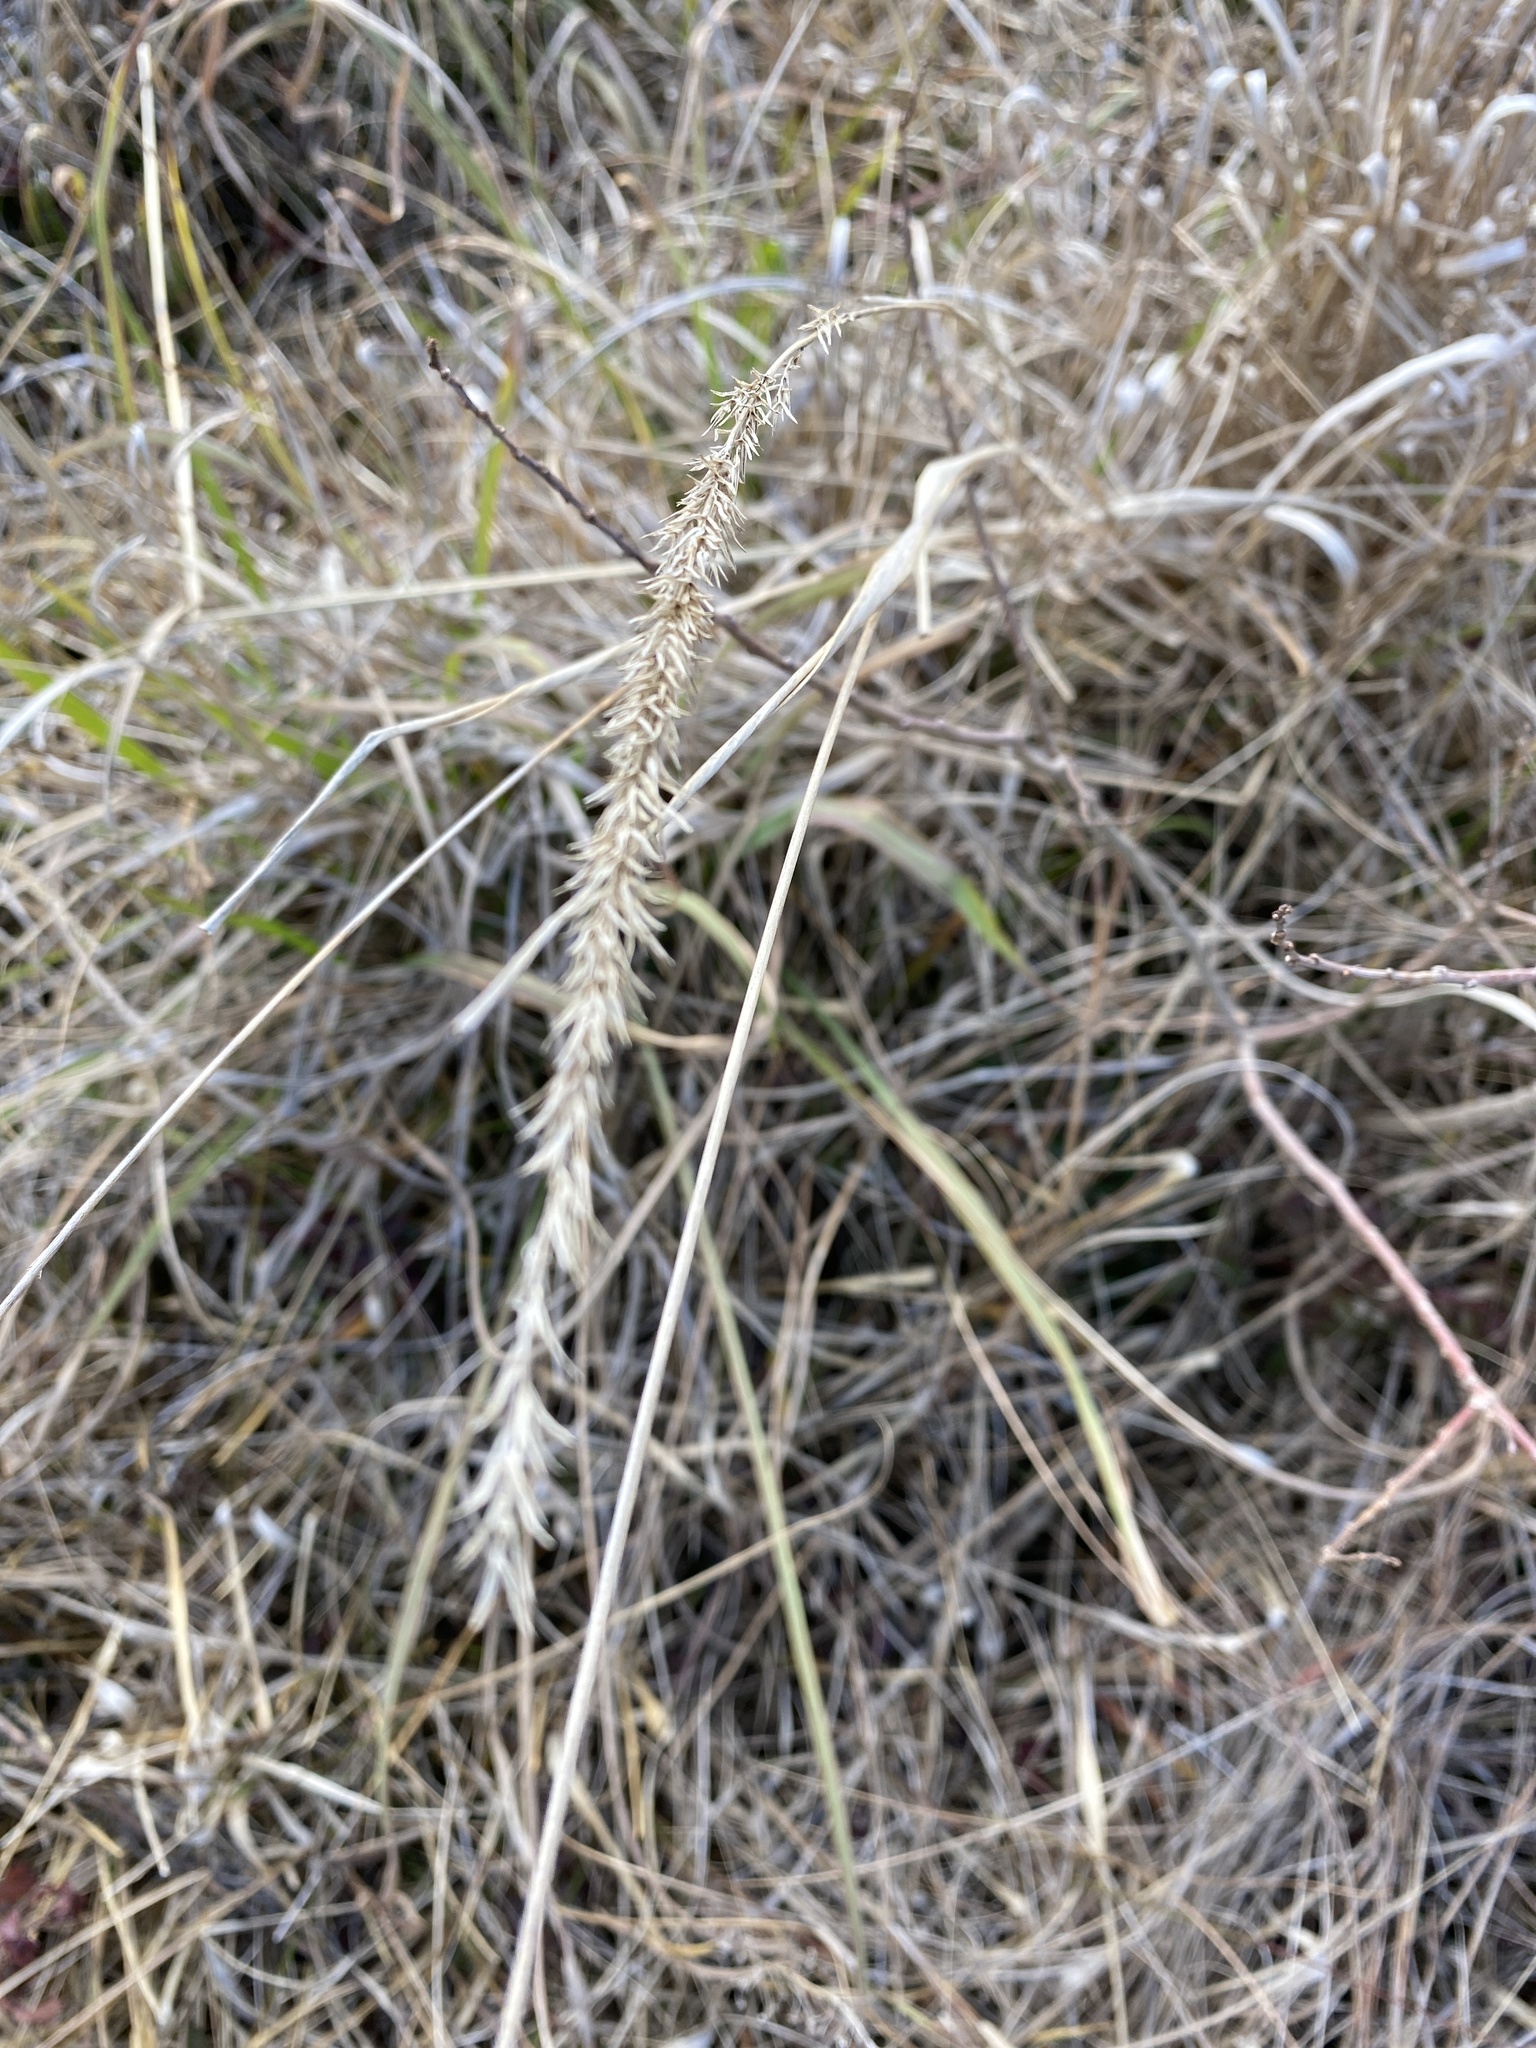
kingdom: Plantae
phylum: Tracheophyta
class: Liliopsida
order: Poales
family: Poaceae
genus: Tridens
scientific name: Tridens strictus
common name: Long-spike tridens
